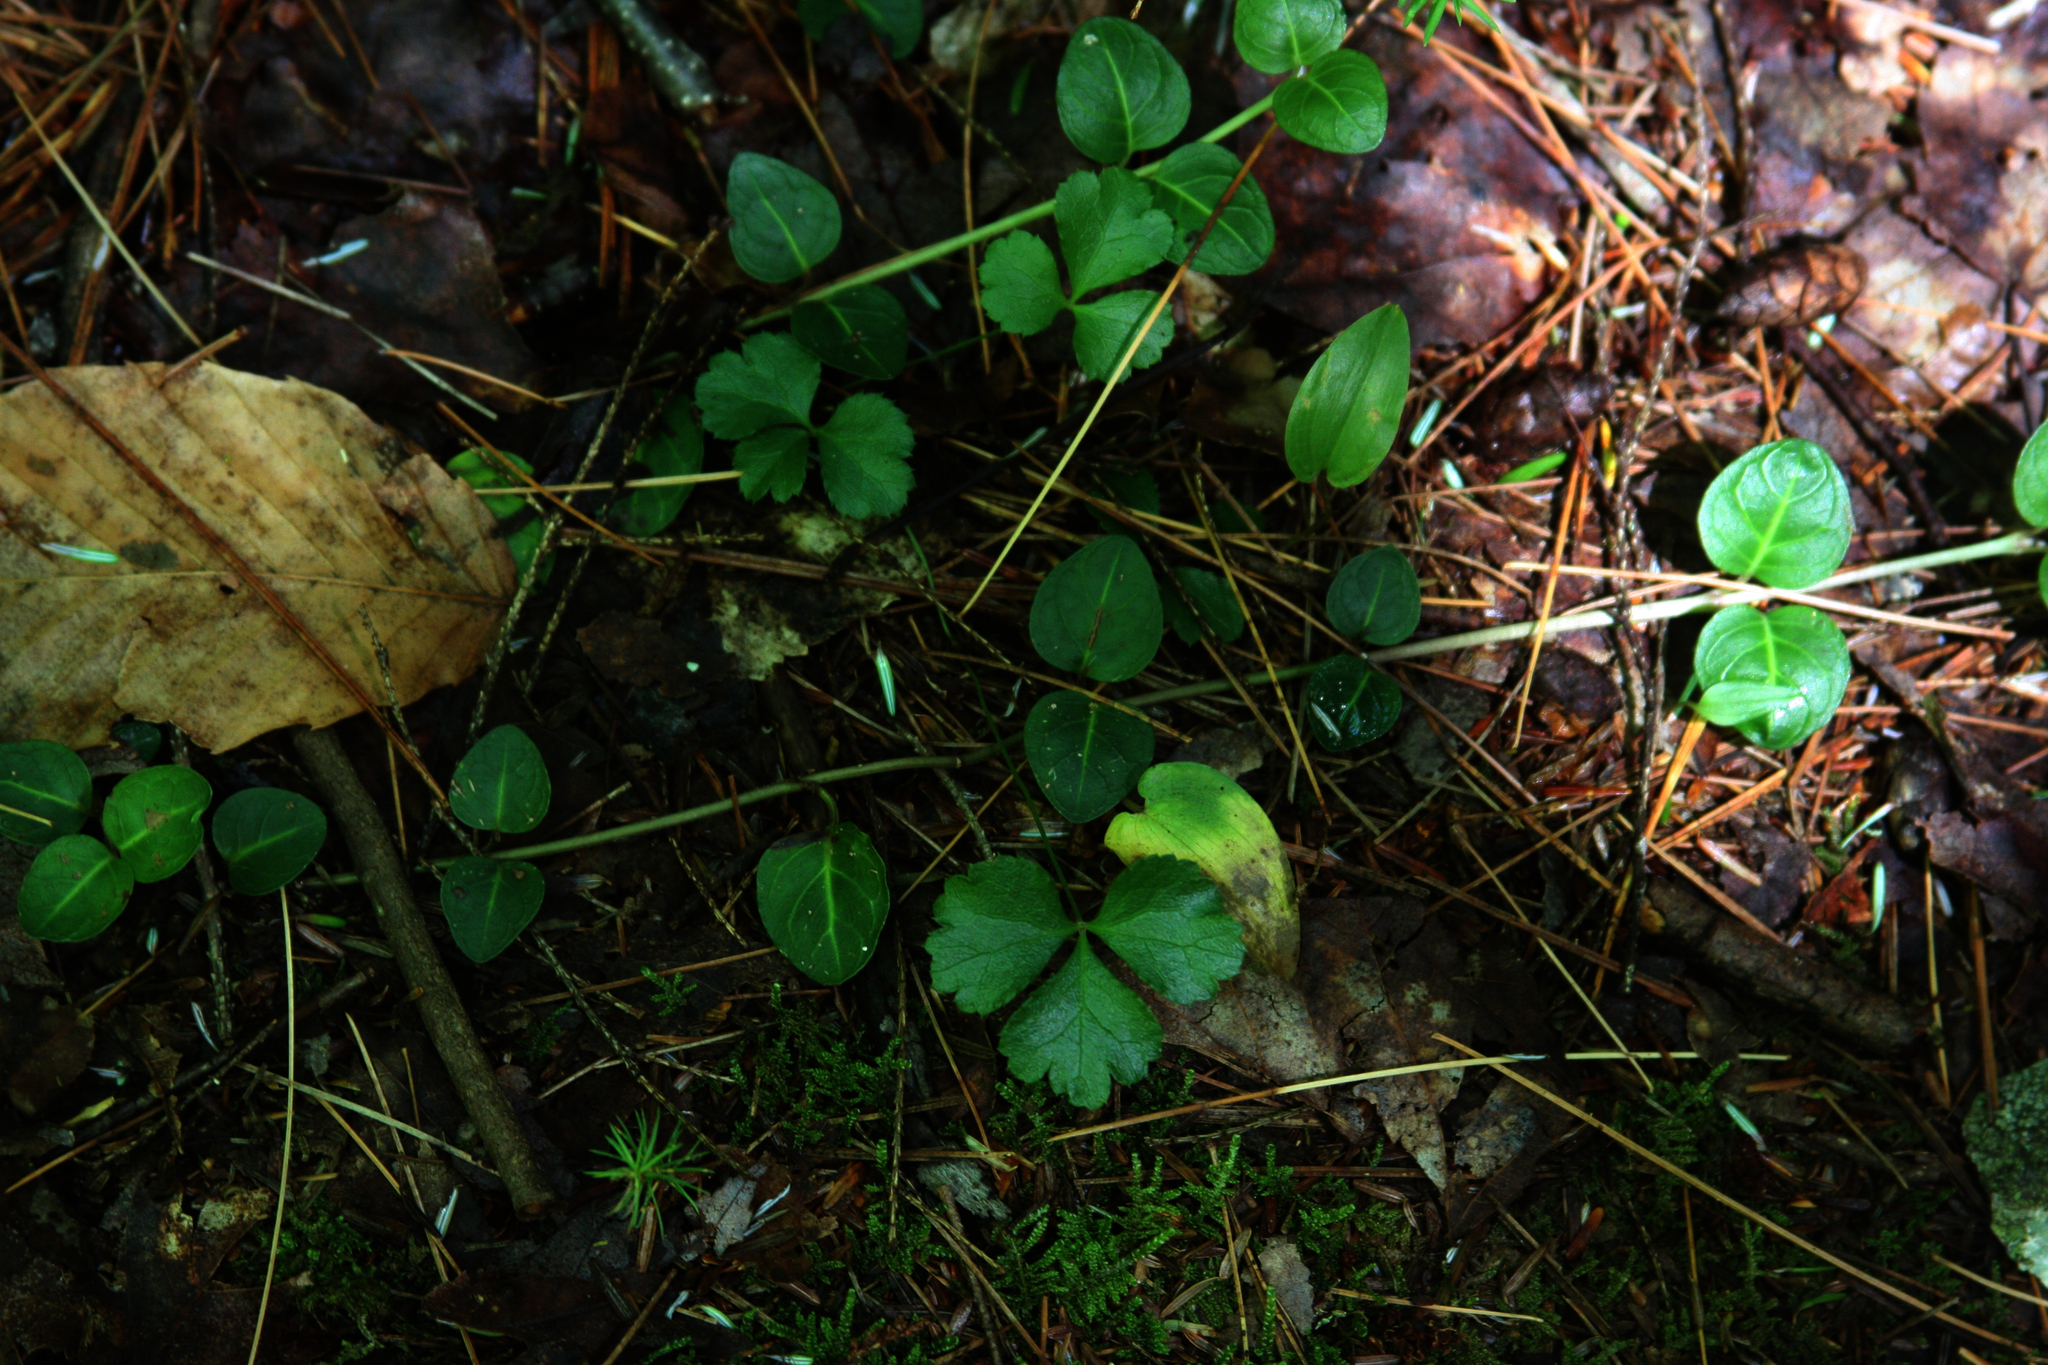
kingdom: Plantae
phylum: Tracheophyta
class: Magnoliopsida
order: Gentianales
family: Rubiaceae
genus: Mitchella
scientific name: Mitchella repens
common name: Partridge-berry
